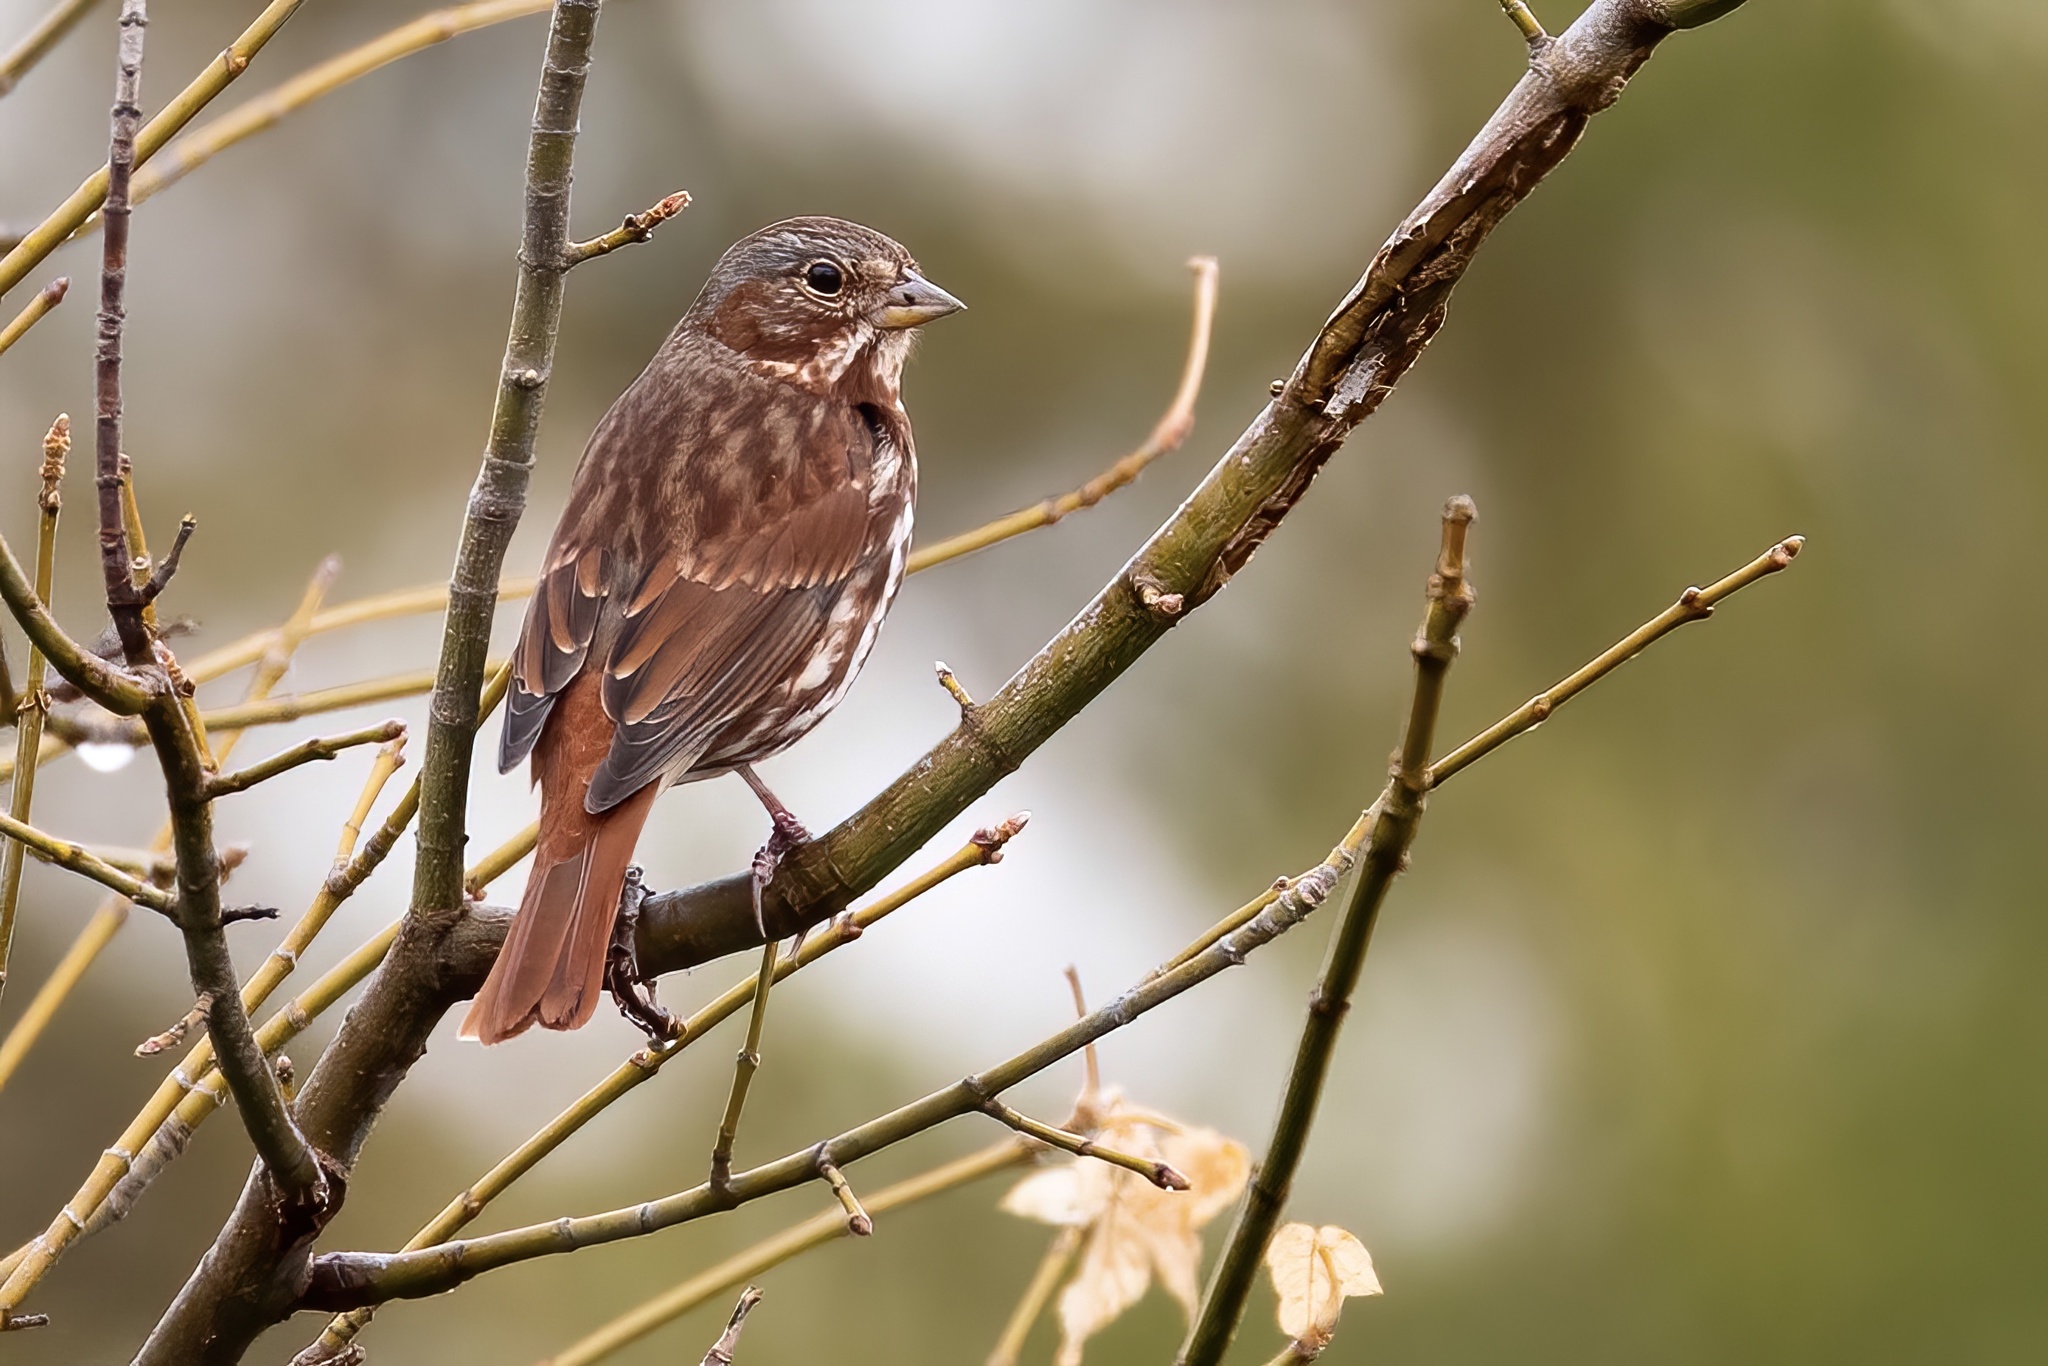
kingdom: Animalia
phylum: Chordata
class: Aves
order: Passeriformes
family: Passerellidae
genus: Passerella
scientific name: Passerella iliaca
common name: Fox sparrow
